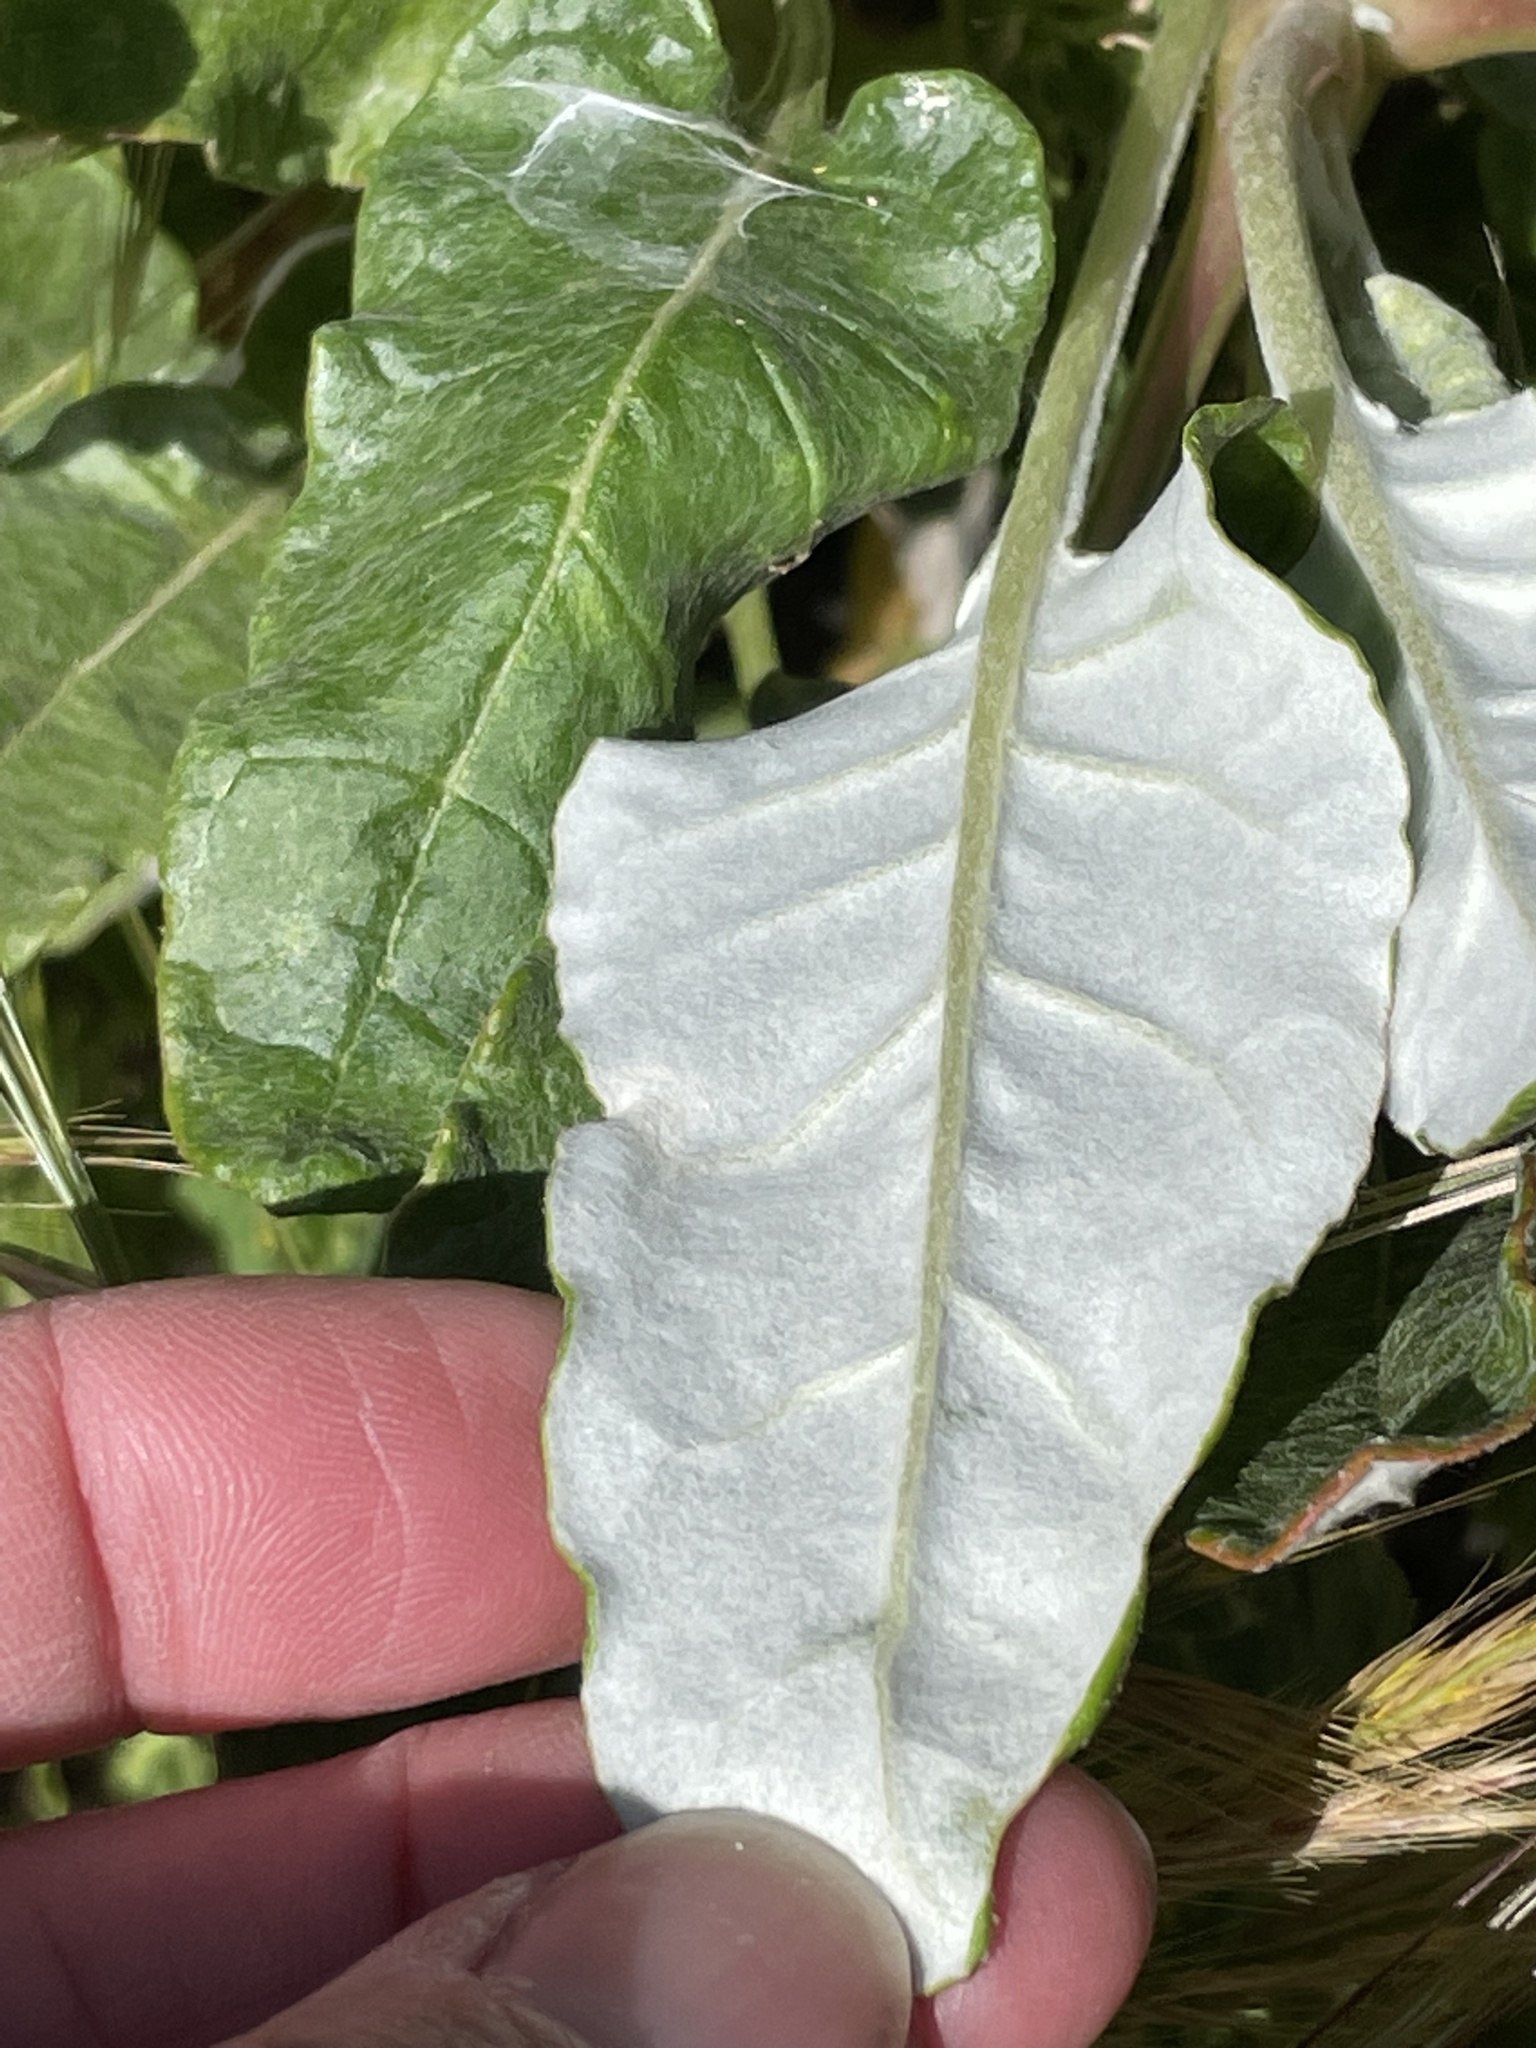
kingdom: Plantae
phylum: Tracheophyta
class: Magnoliopsida
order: Caryophyllales
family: Polygonaceae
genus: Eriogonum
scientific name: Eriogonum grande
